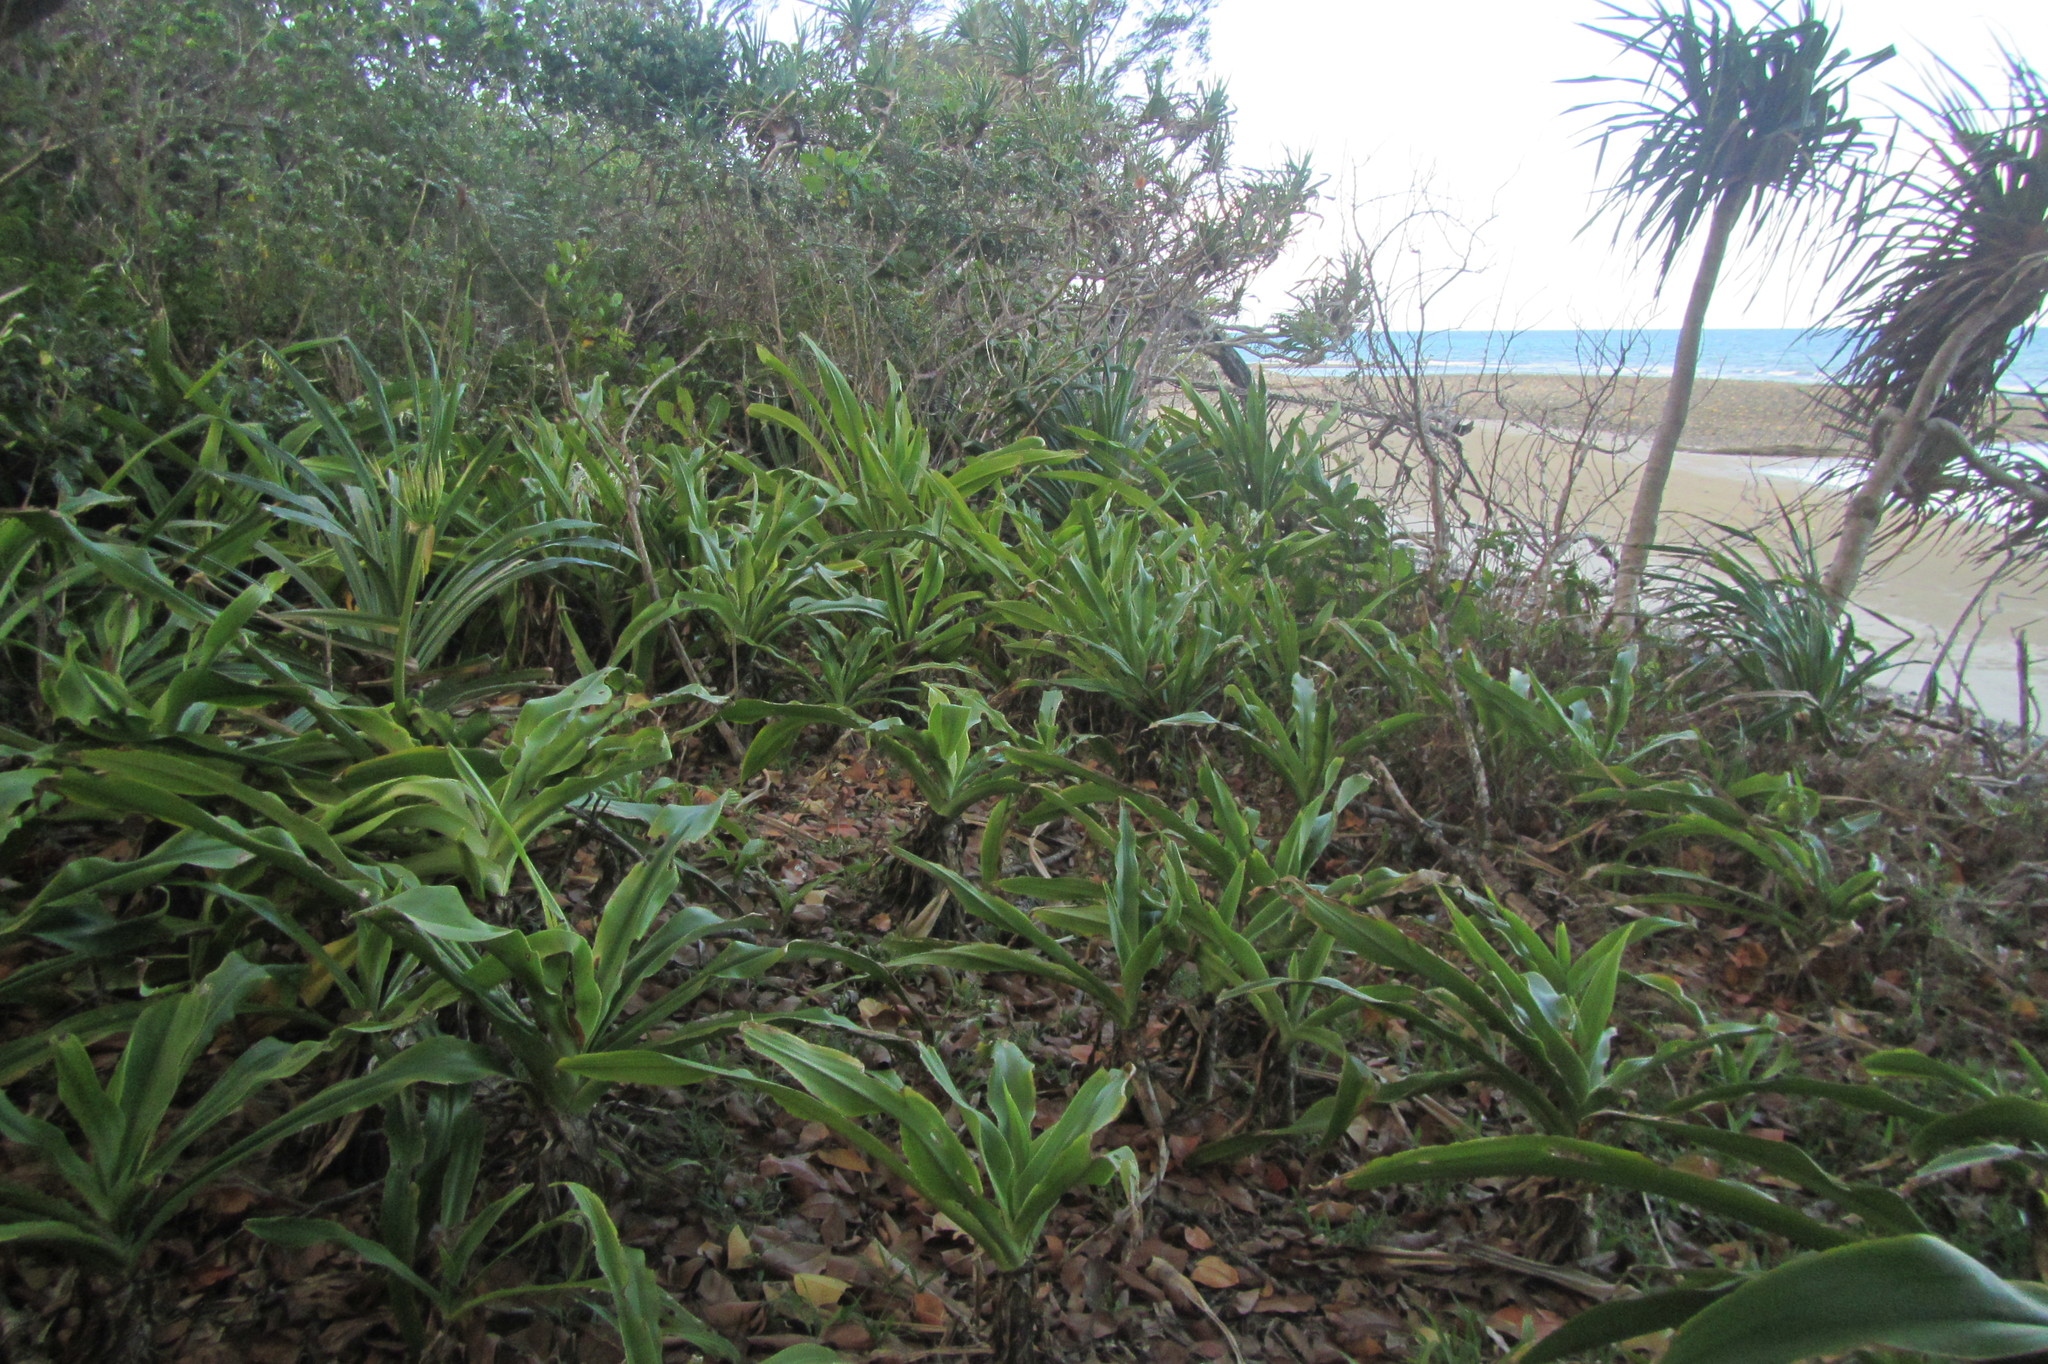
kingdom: Plantae
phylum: Tracheophyta
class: Liliopsida
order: Asparagales
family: Amaryllidaceae
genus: Crinum
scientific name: Crinum pedunculatum
